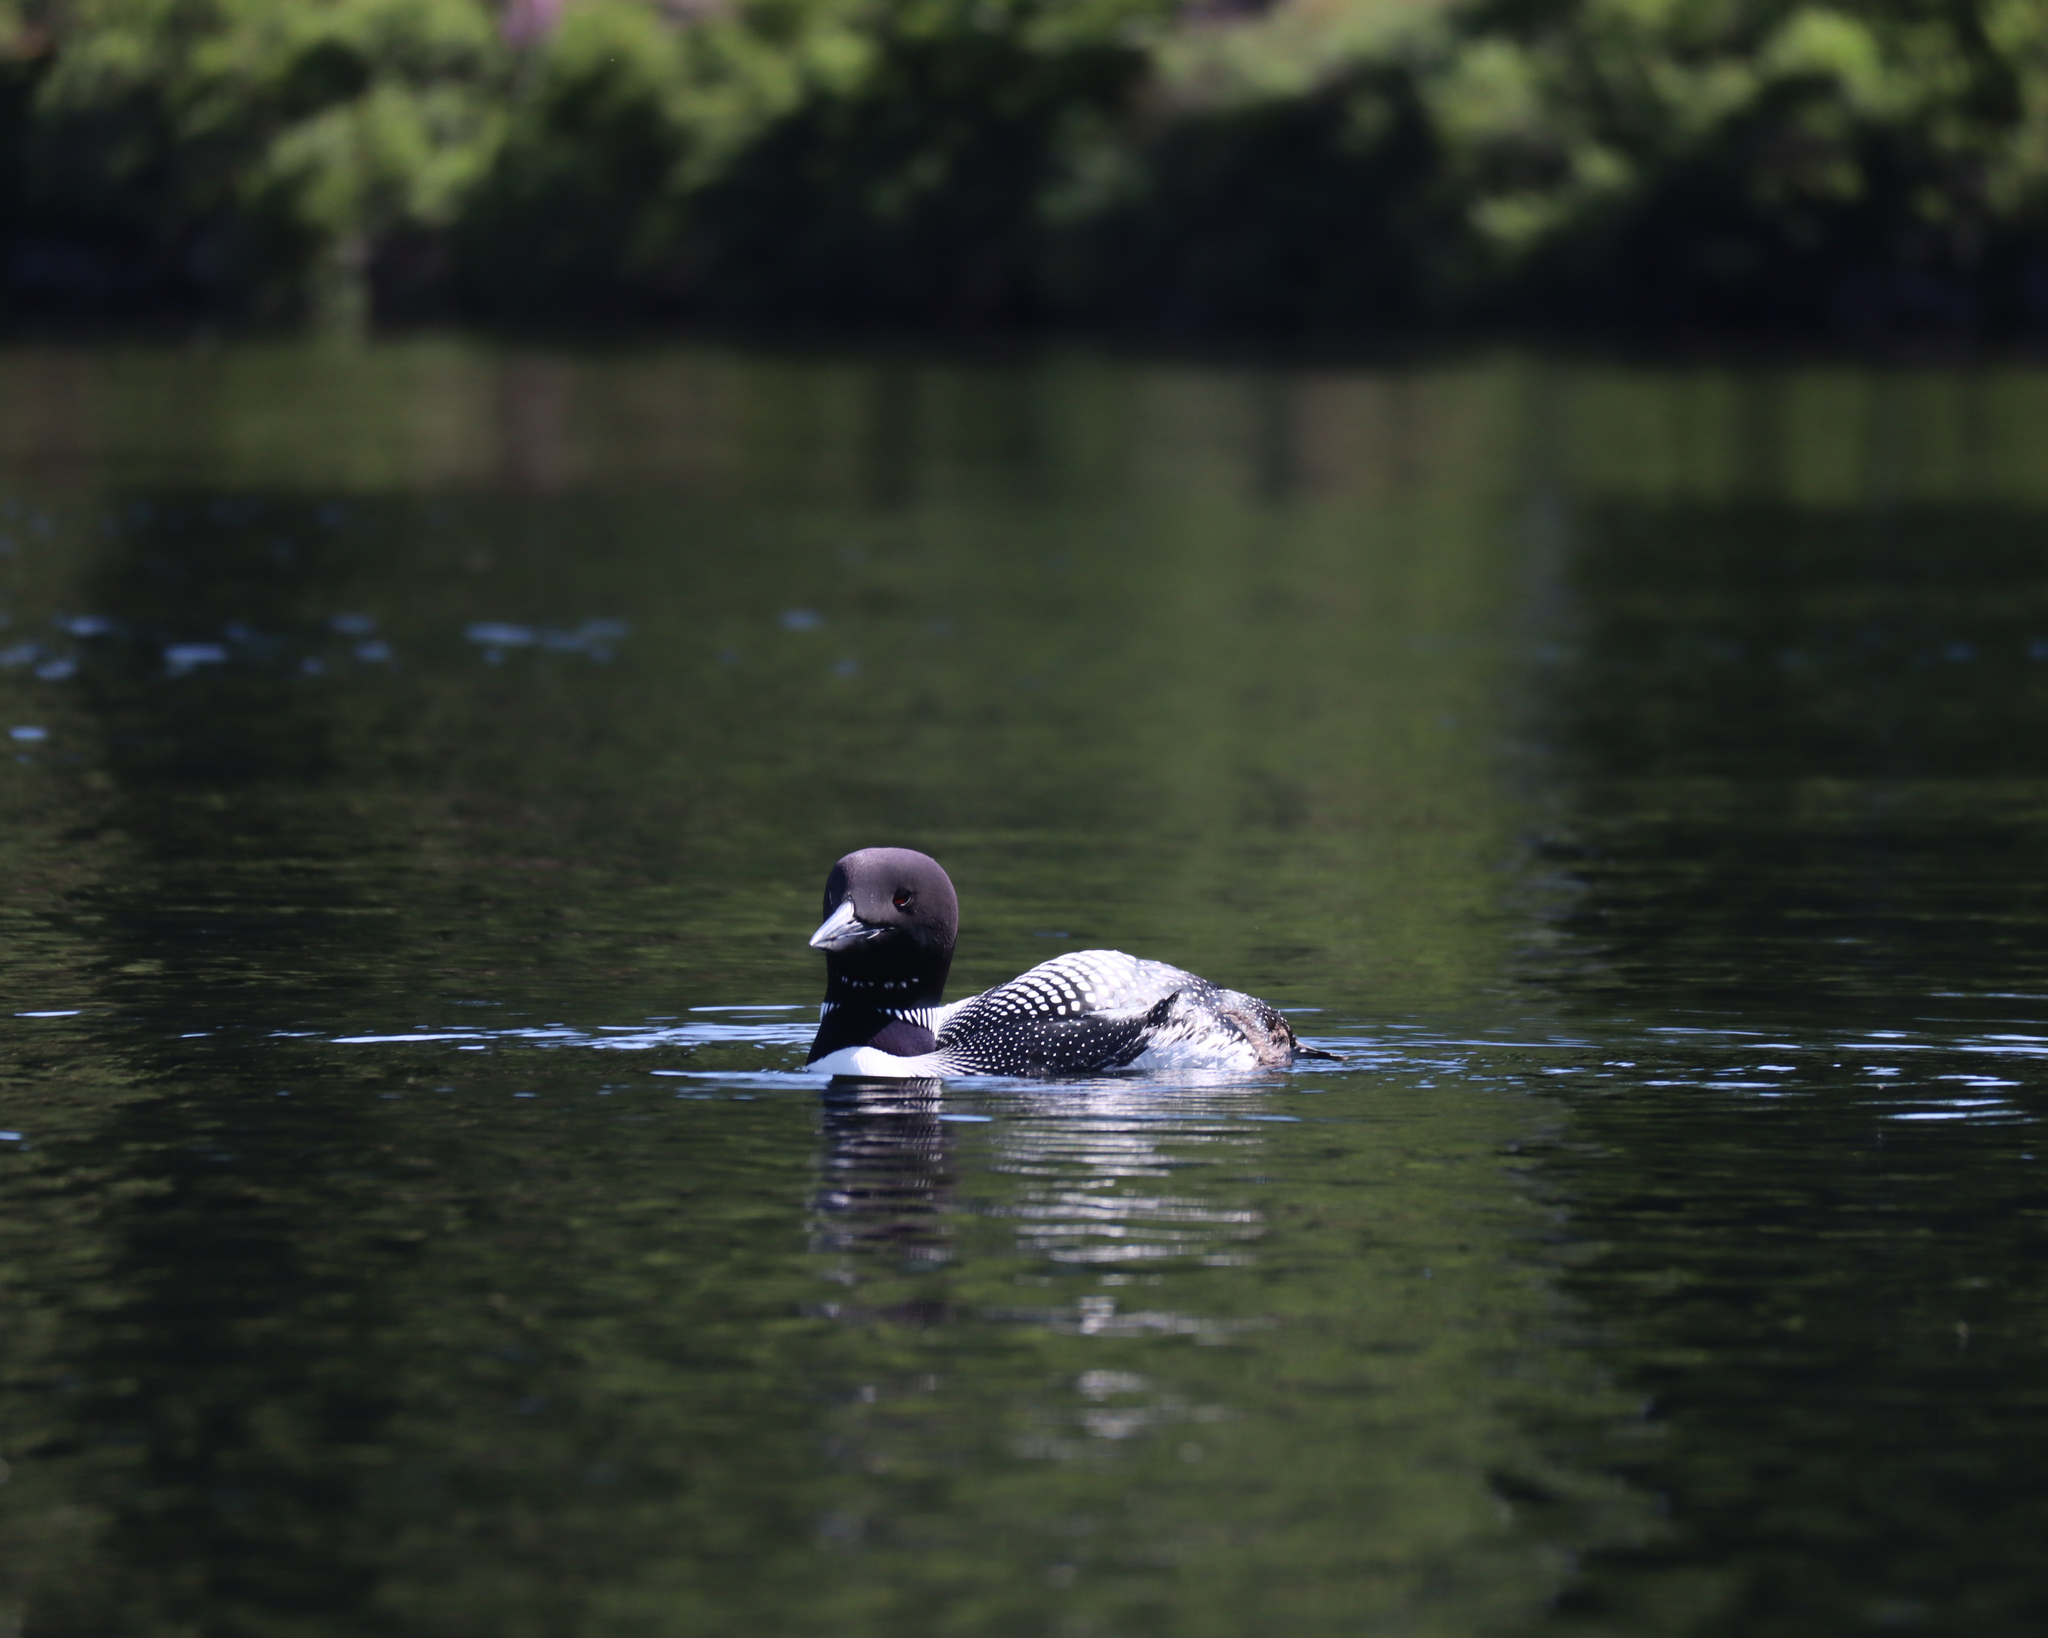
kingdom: Animalia
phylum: Chordata
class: Aves
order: Gaviiformes
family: Gaviidae
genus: Gavia
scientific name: Gavia immer
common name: Common loon
